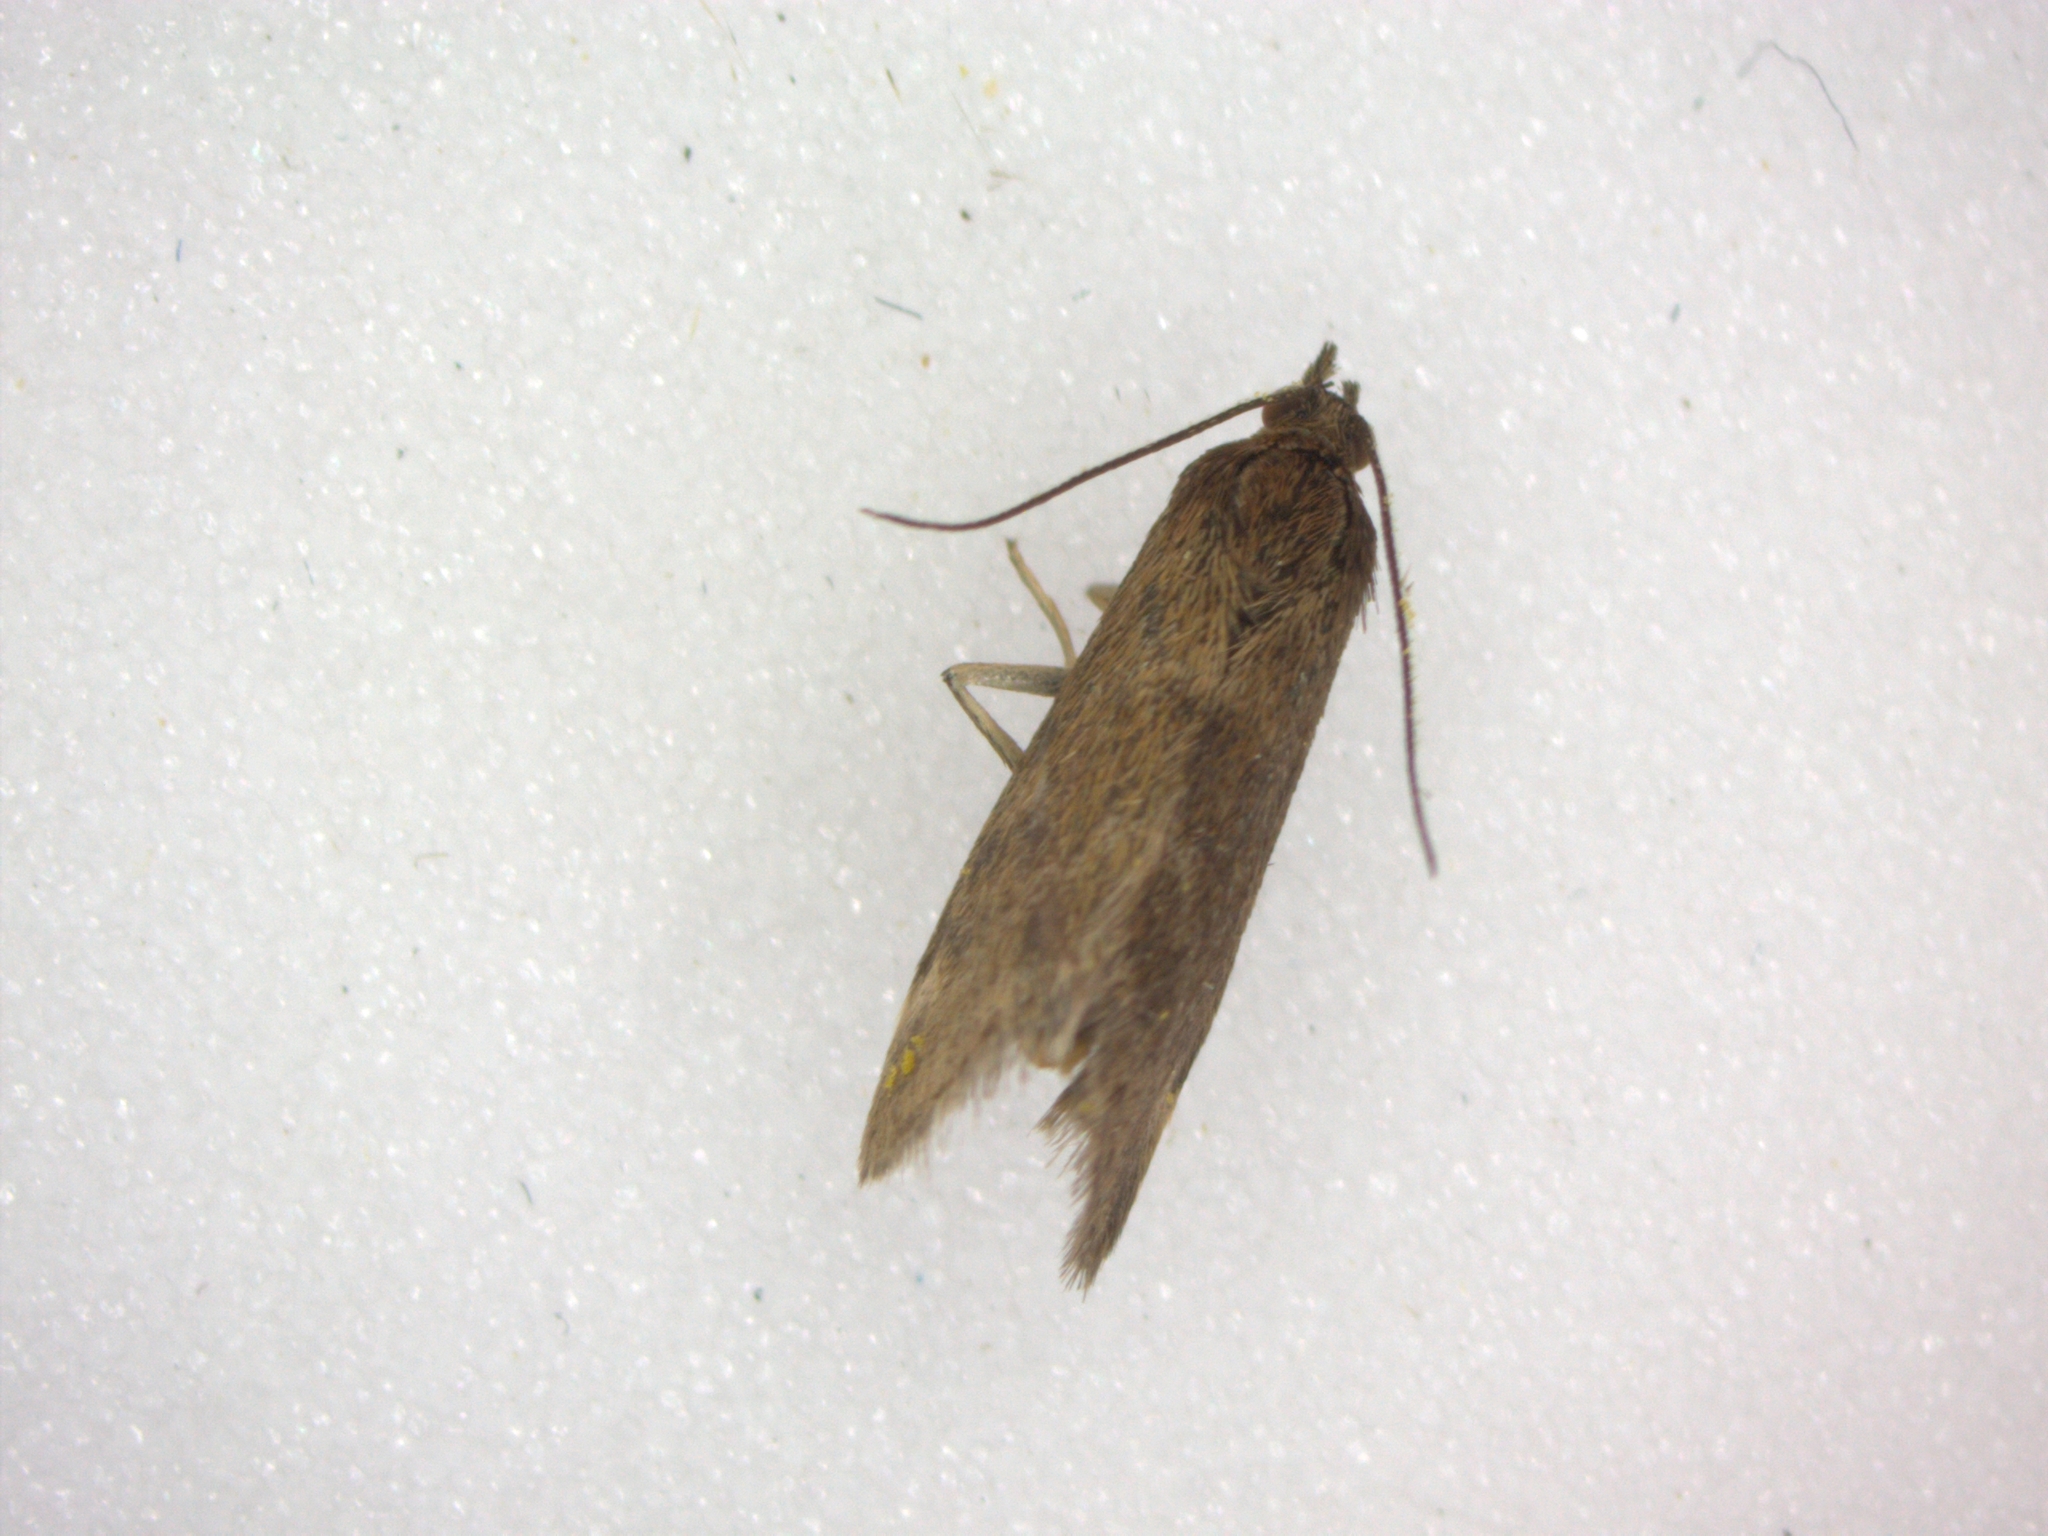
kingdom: Animalia
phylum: Arthropoda
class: Insecta
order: Lepidoptera
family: Crambidae
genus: Pyrausta
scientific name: Pyrausta despicata
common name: Straw-barred pearl
